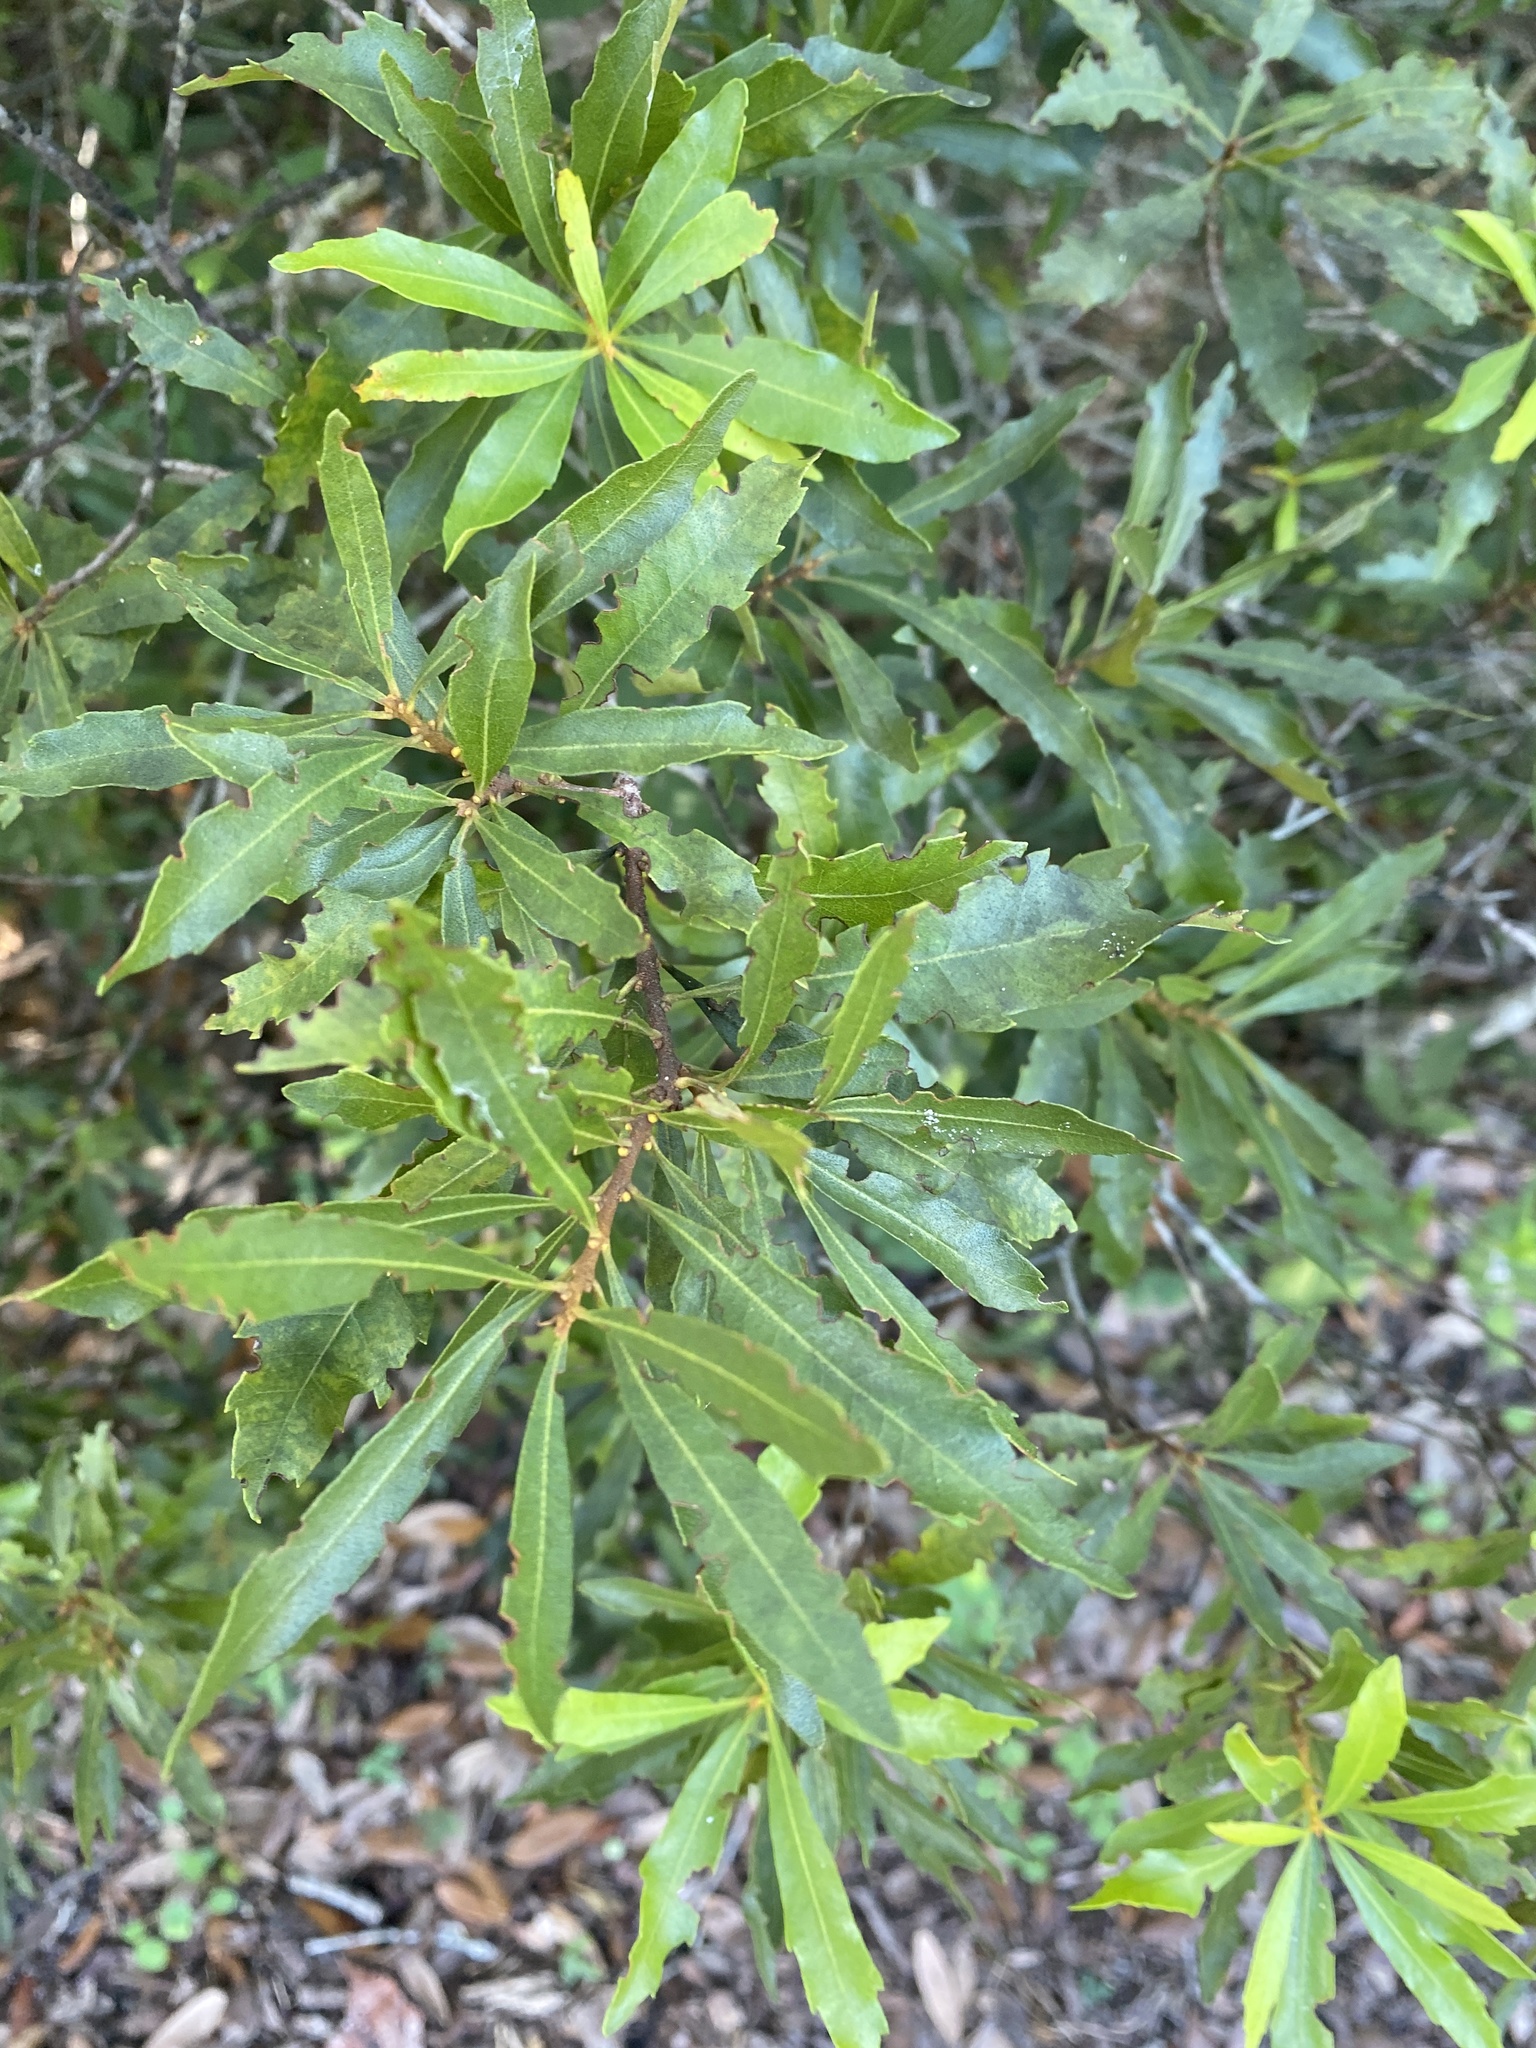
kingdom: Plantae
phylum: Tracheophyta
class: Magnoliopsida
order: Fagales
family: Myricaceae
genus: Morella
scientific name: Morella cerifera
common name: Wax myrtle
